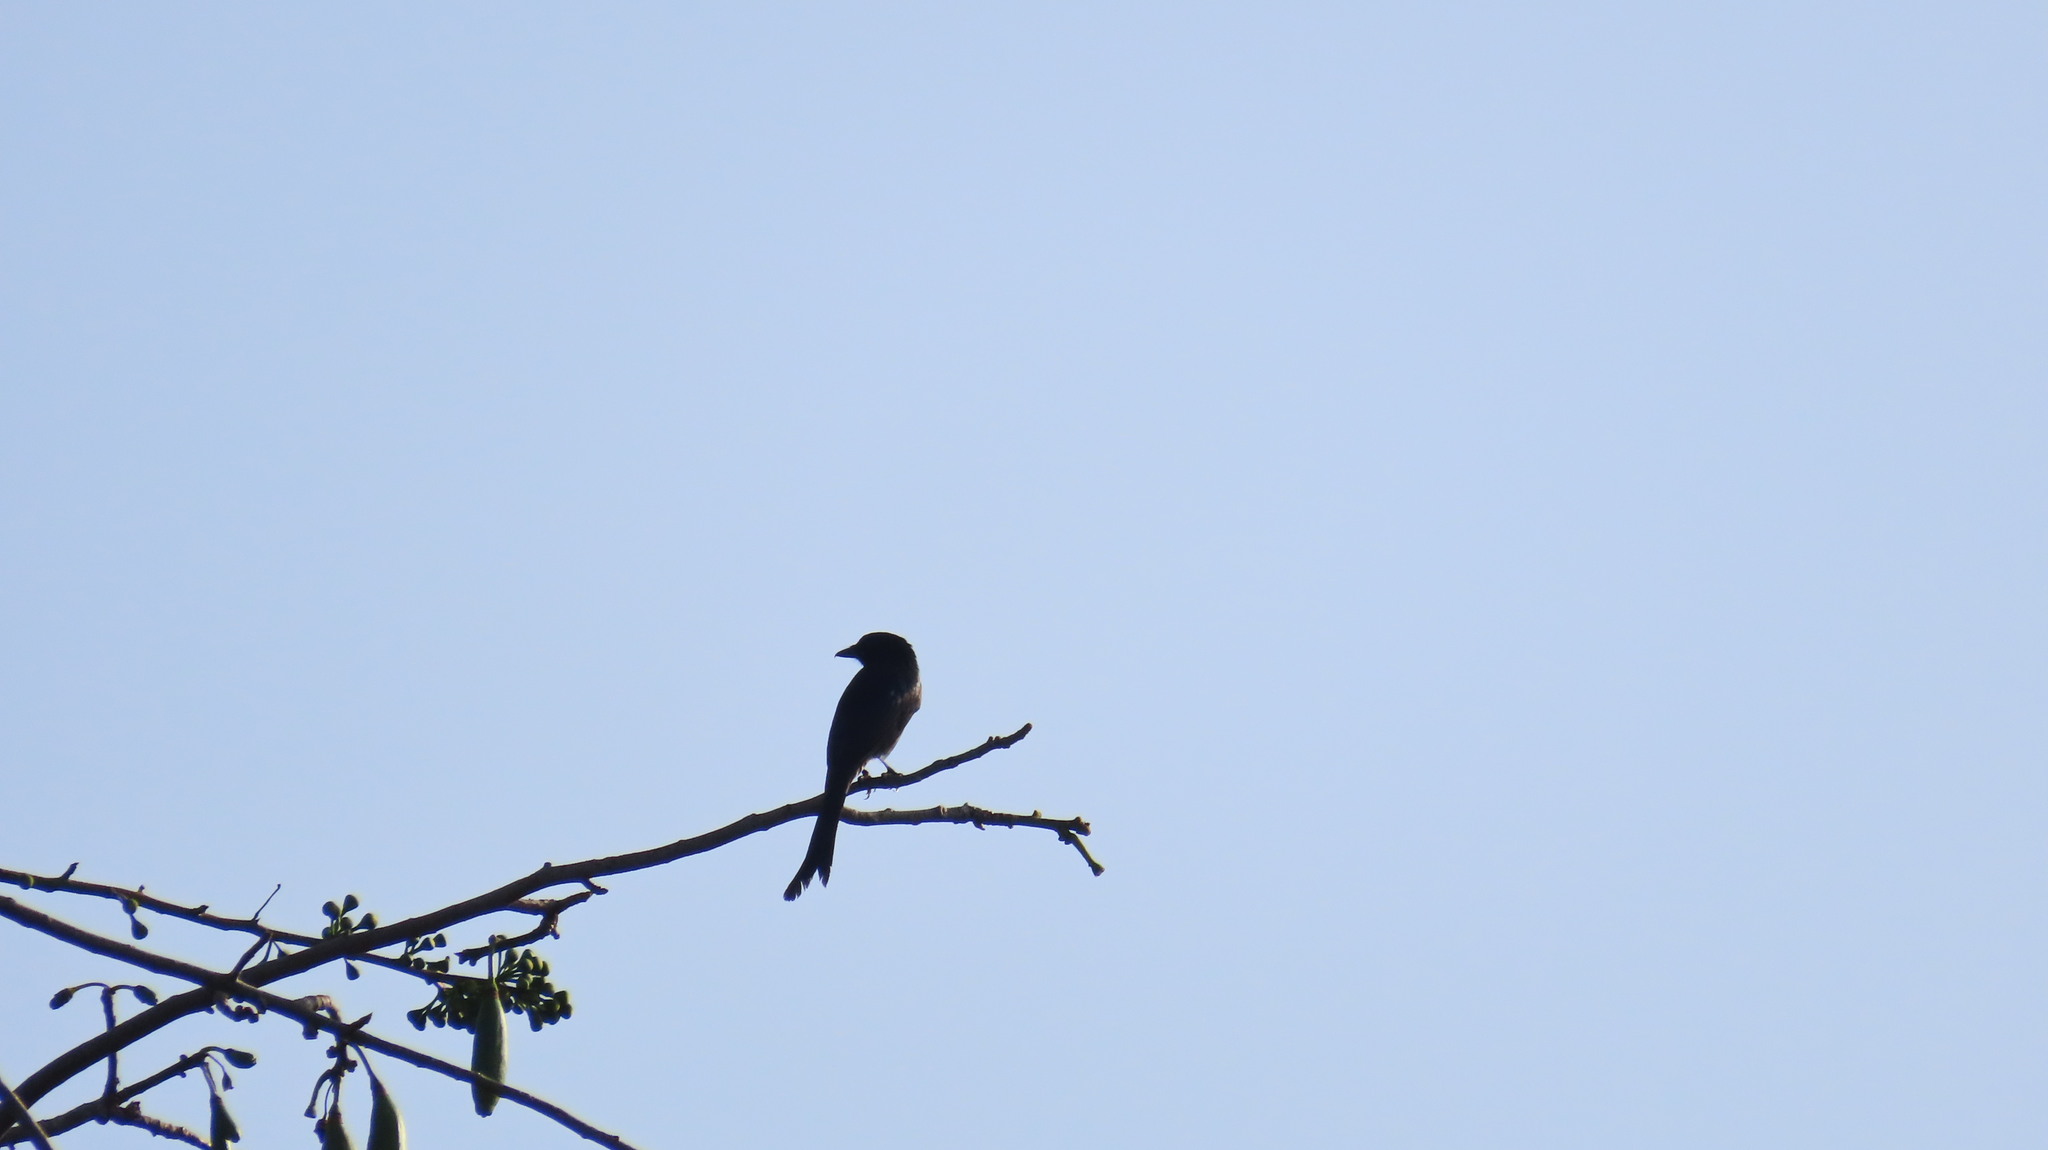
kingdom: Animalia
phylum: Chordata
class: Aves
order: Passeriformes
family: Dicruridae
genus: Dicrurus
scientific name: Dicrurus macrocercus
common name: Black drongo
